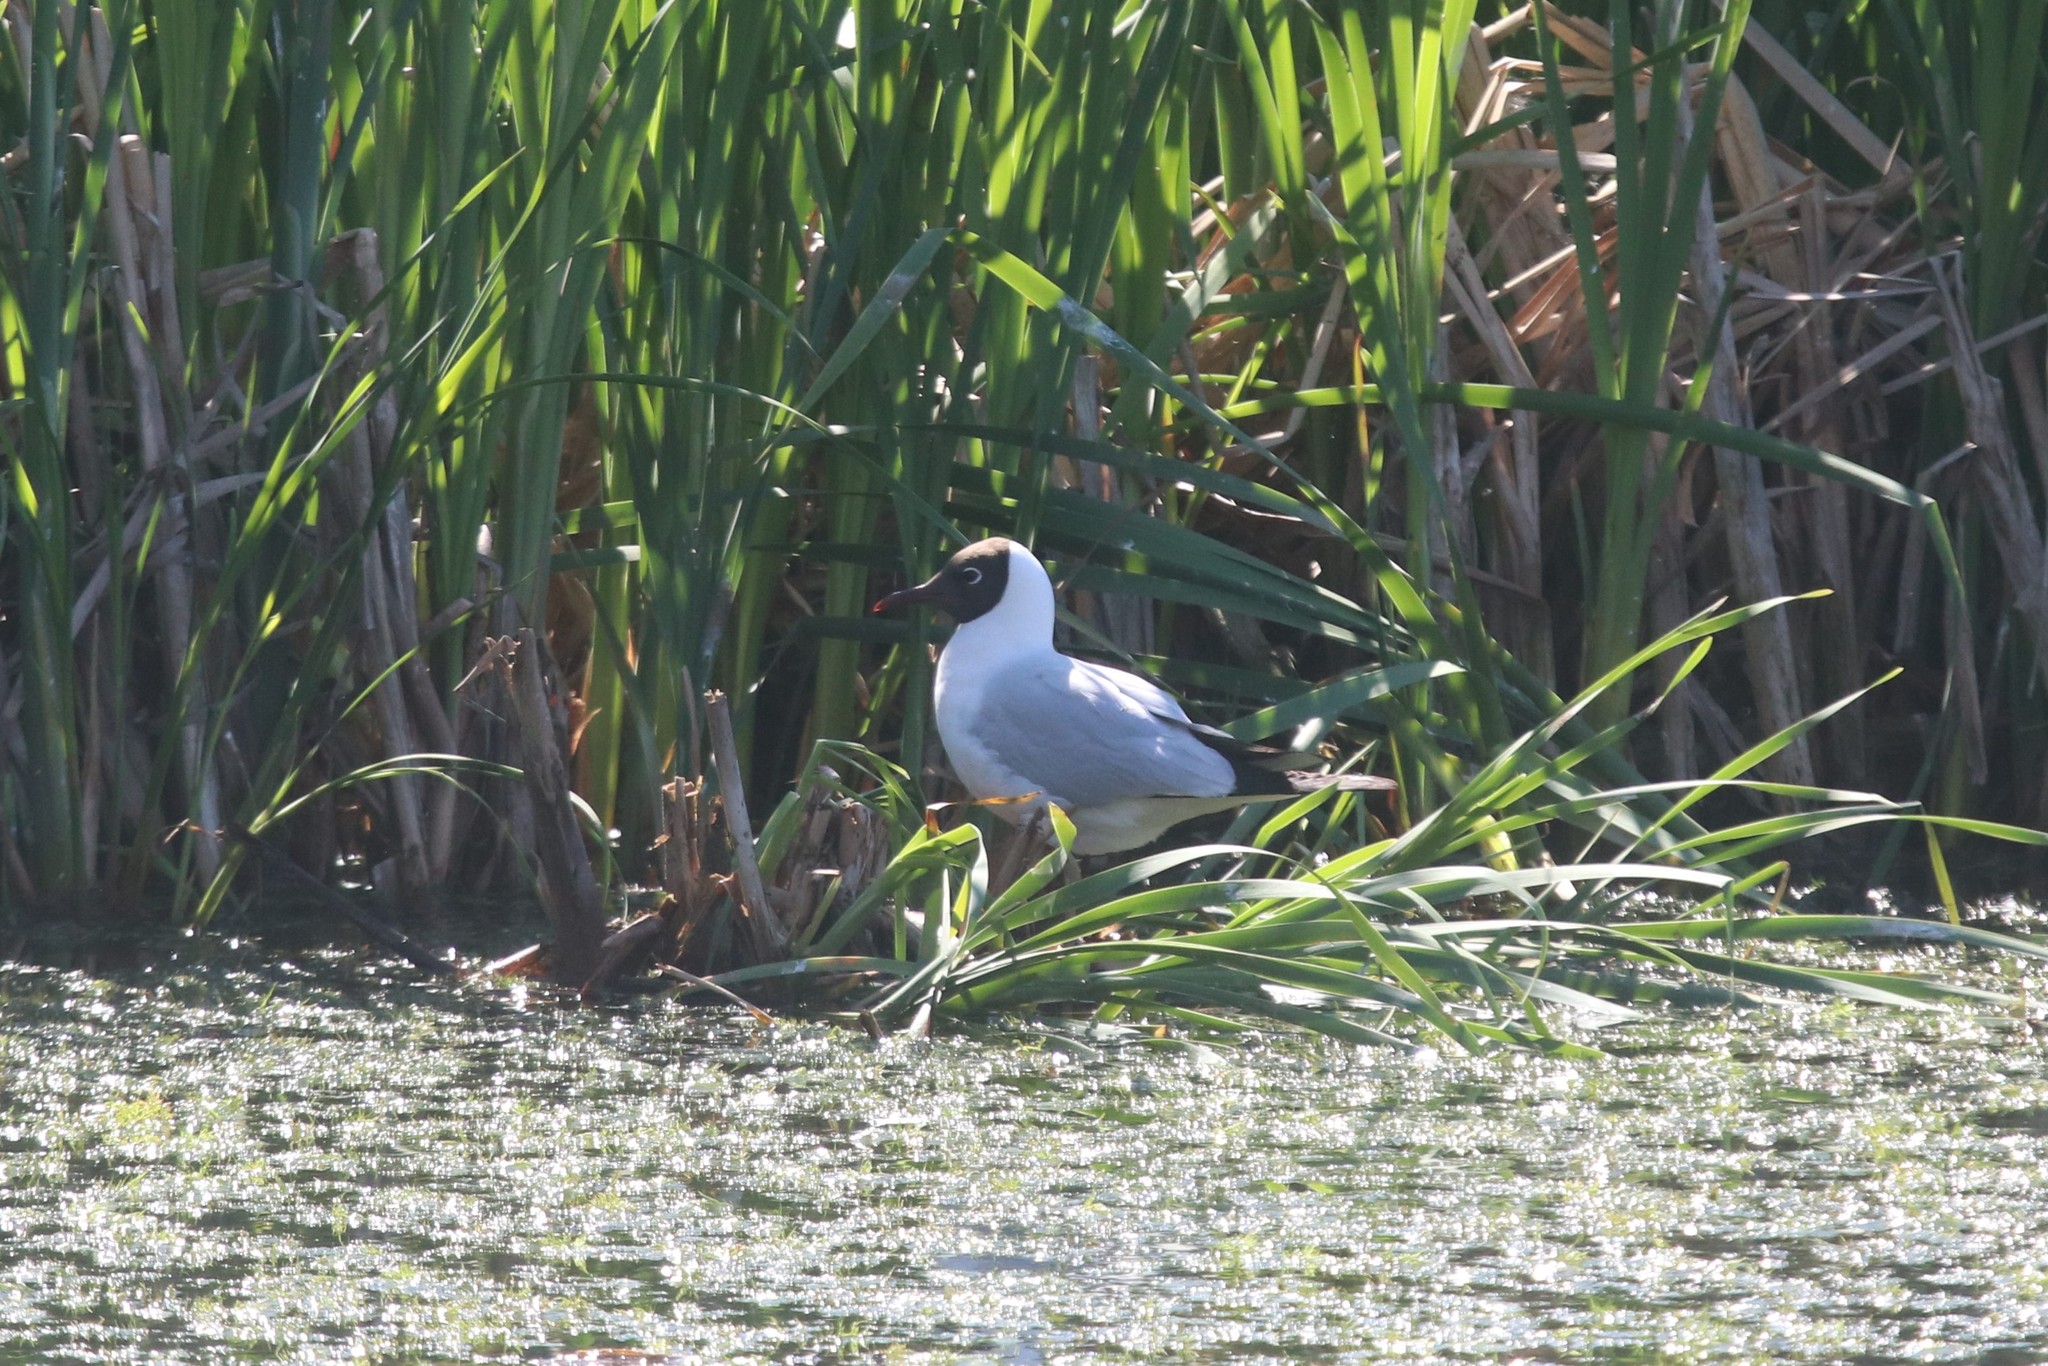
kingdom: Animalia
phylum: Chordata
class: Aves
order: Charadriiformes
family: Laridae
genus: Chroicocephalus
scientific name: Chroicocephalus ridibundus
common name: Black-headed gull
